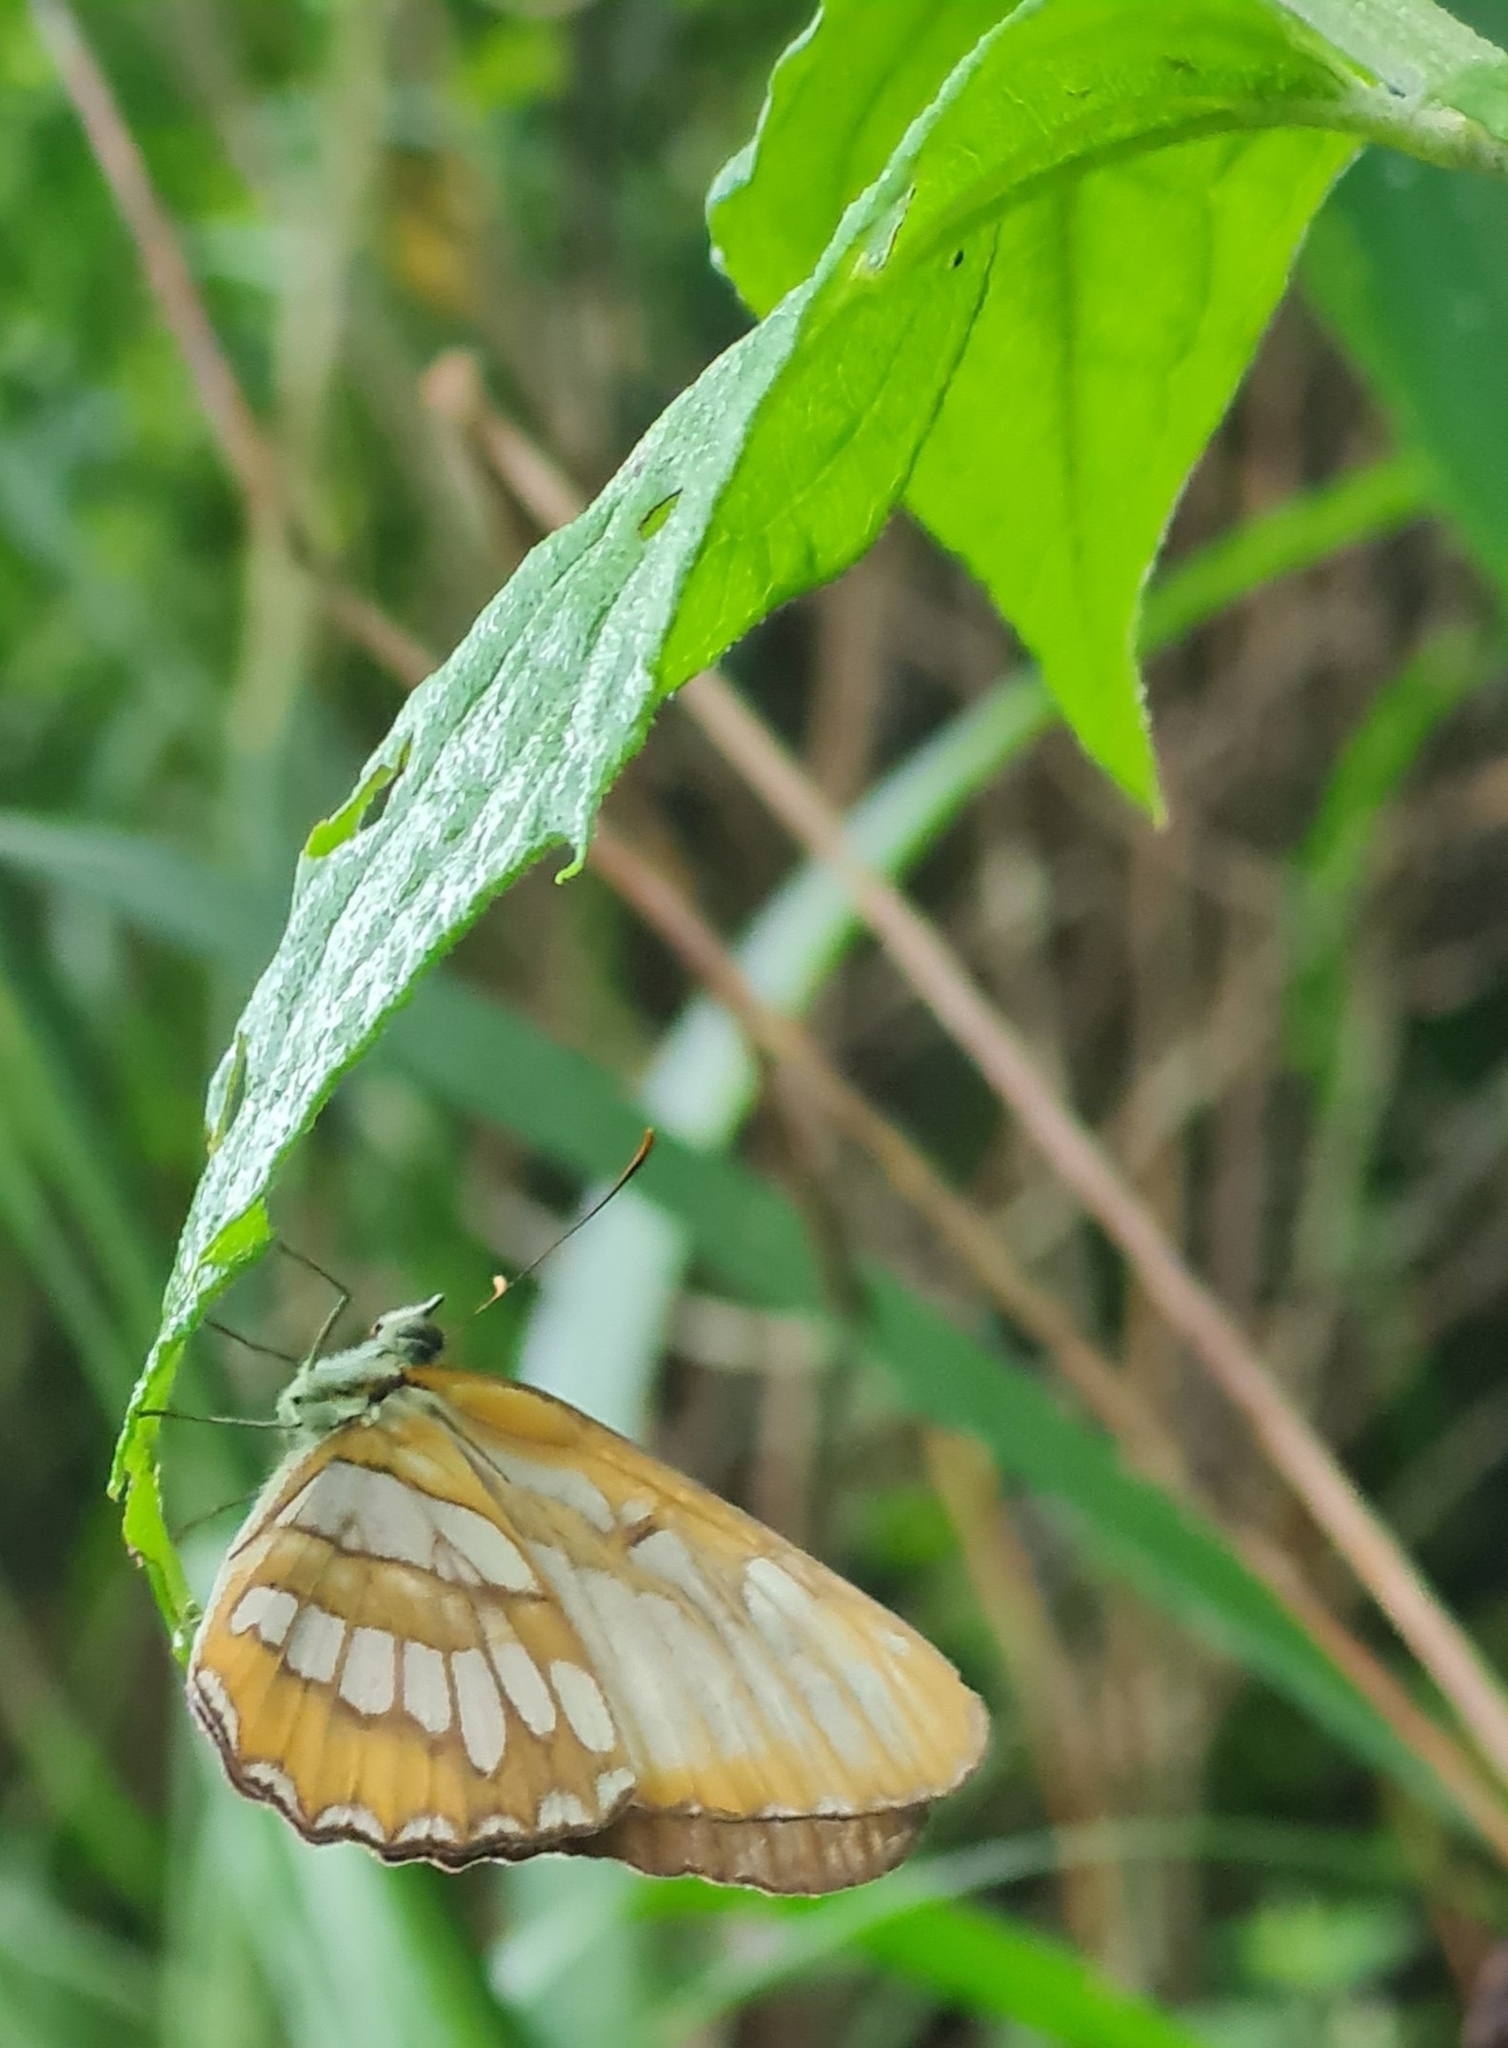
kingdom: Animalia
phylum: Arthropoda
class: Insecta
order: Lepidoptera
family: Nymphalidae
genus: Mestra
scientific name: Mestra hersilia
